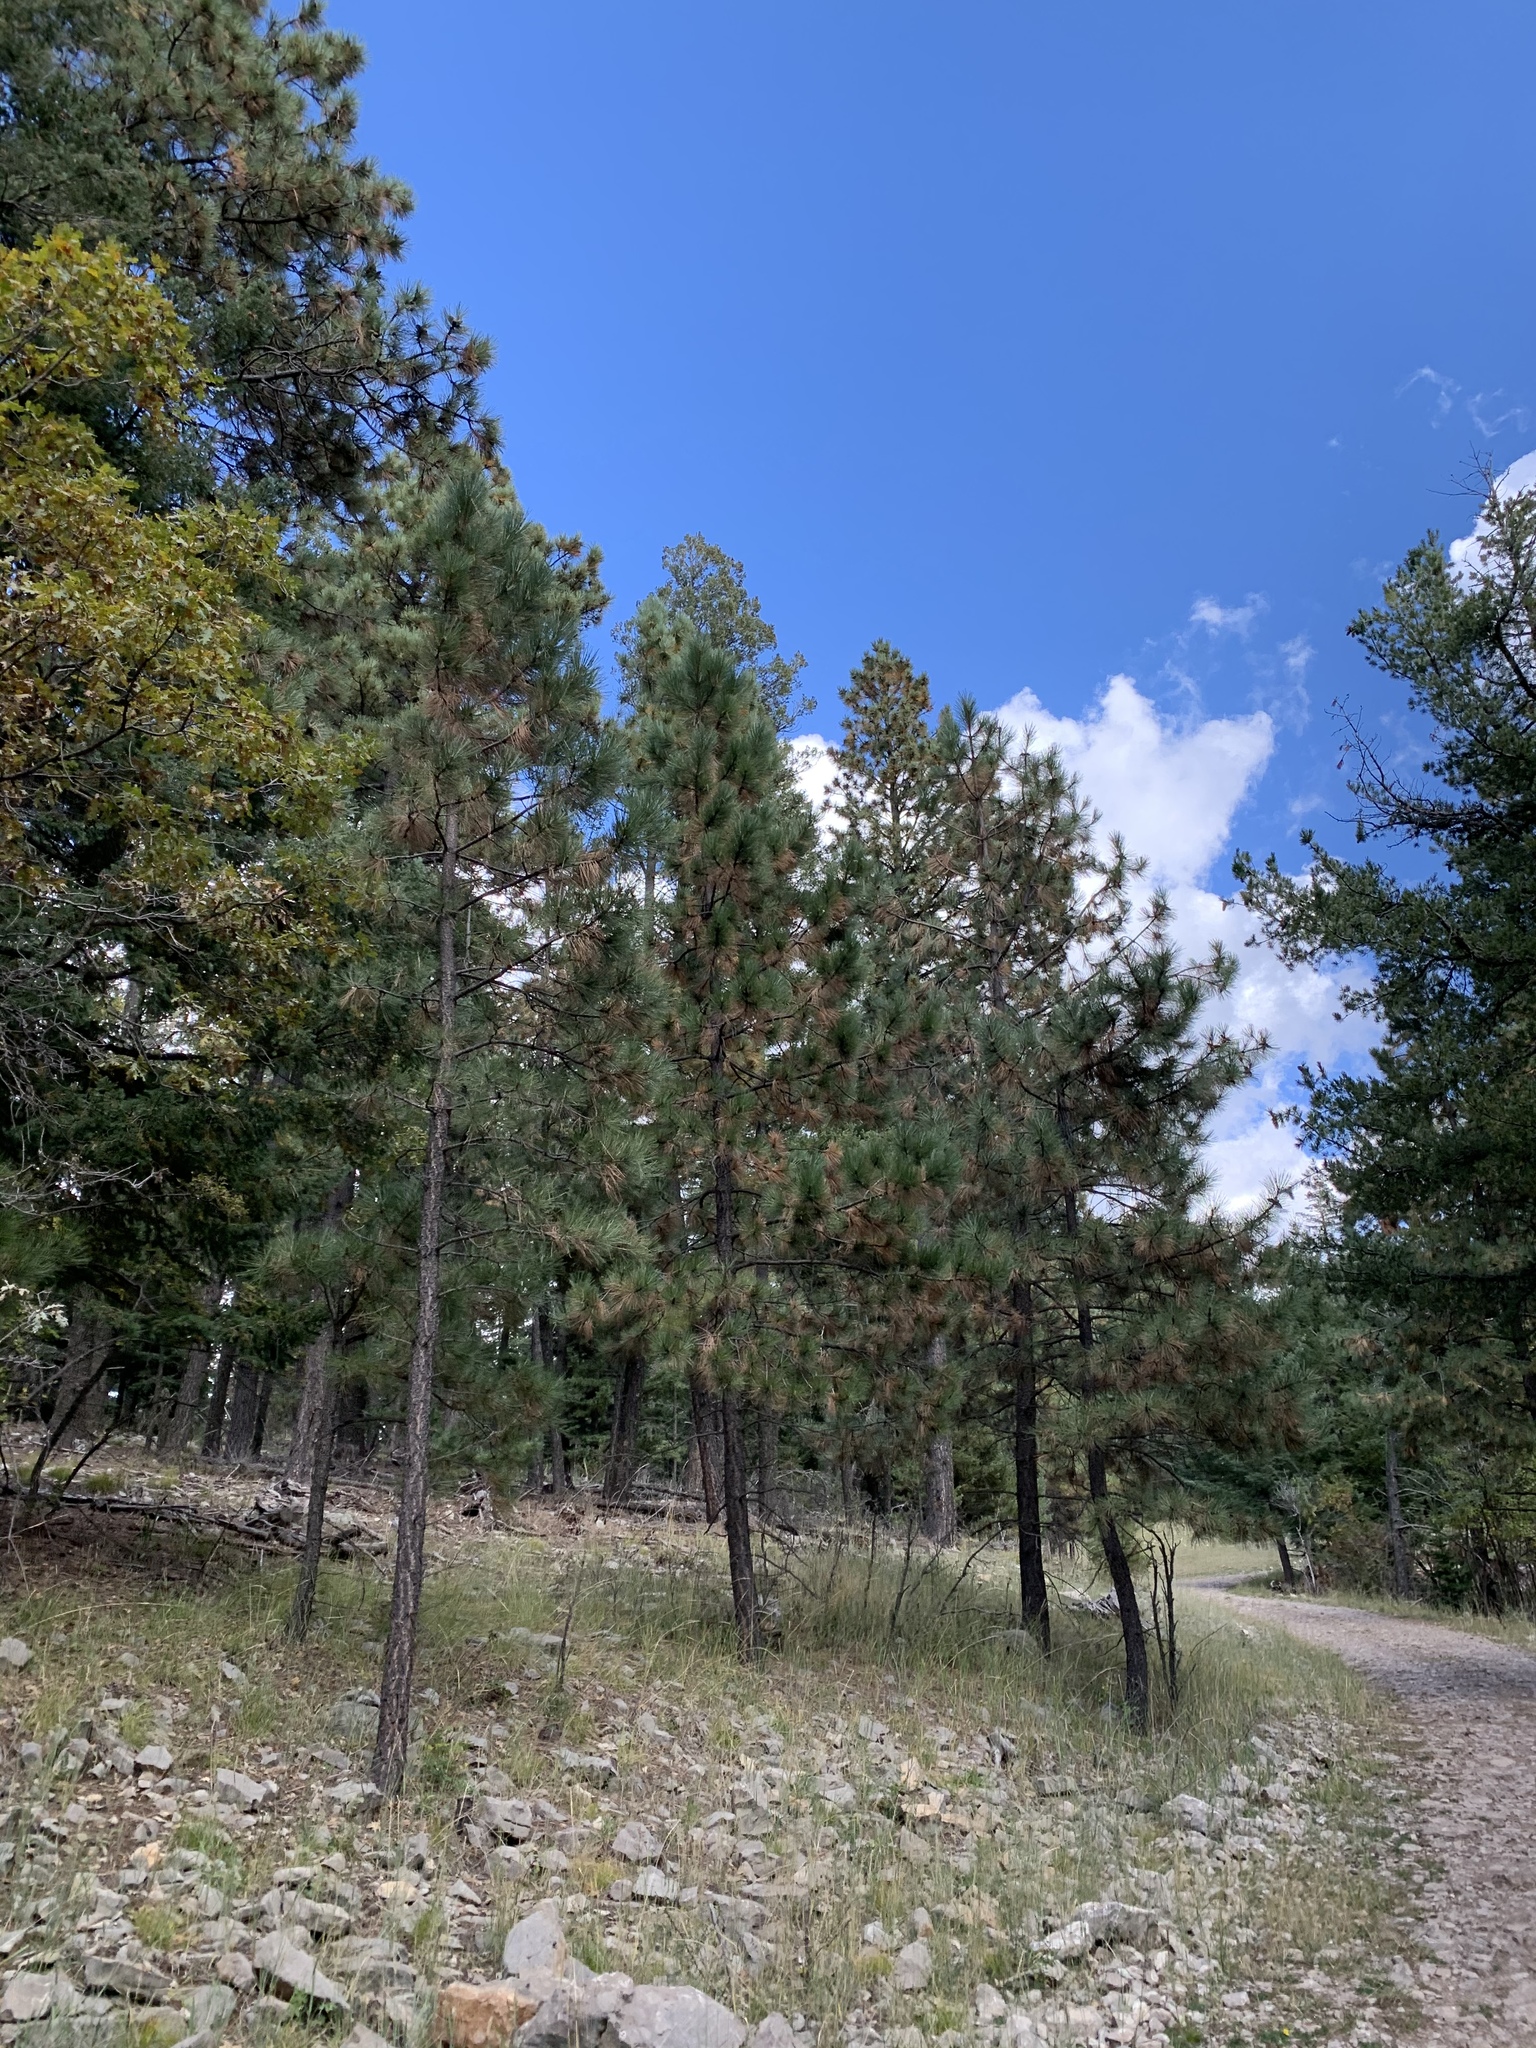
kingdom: Plantae
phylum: Tracheophyta
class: Pinopsida
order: Pinales
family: Pinaceae
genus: Pinus
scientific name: Pinus ponderosa
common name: Western yellow-pine
